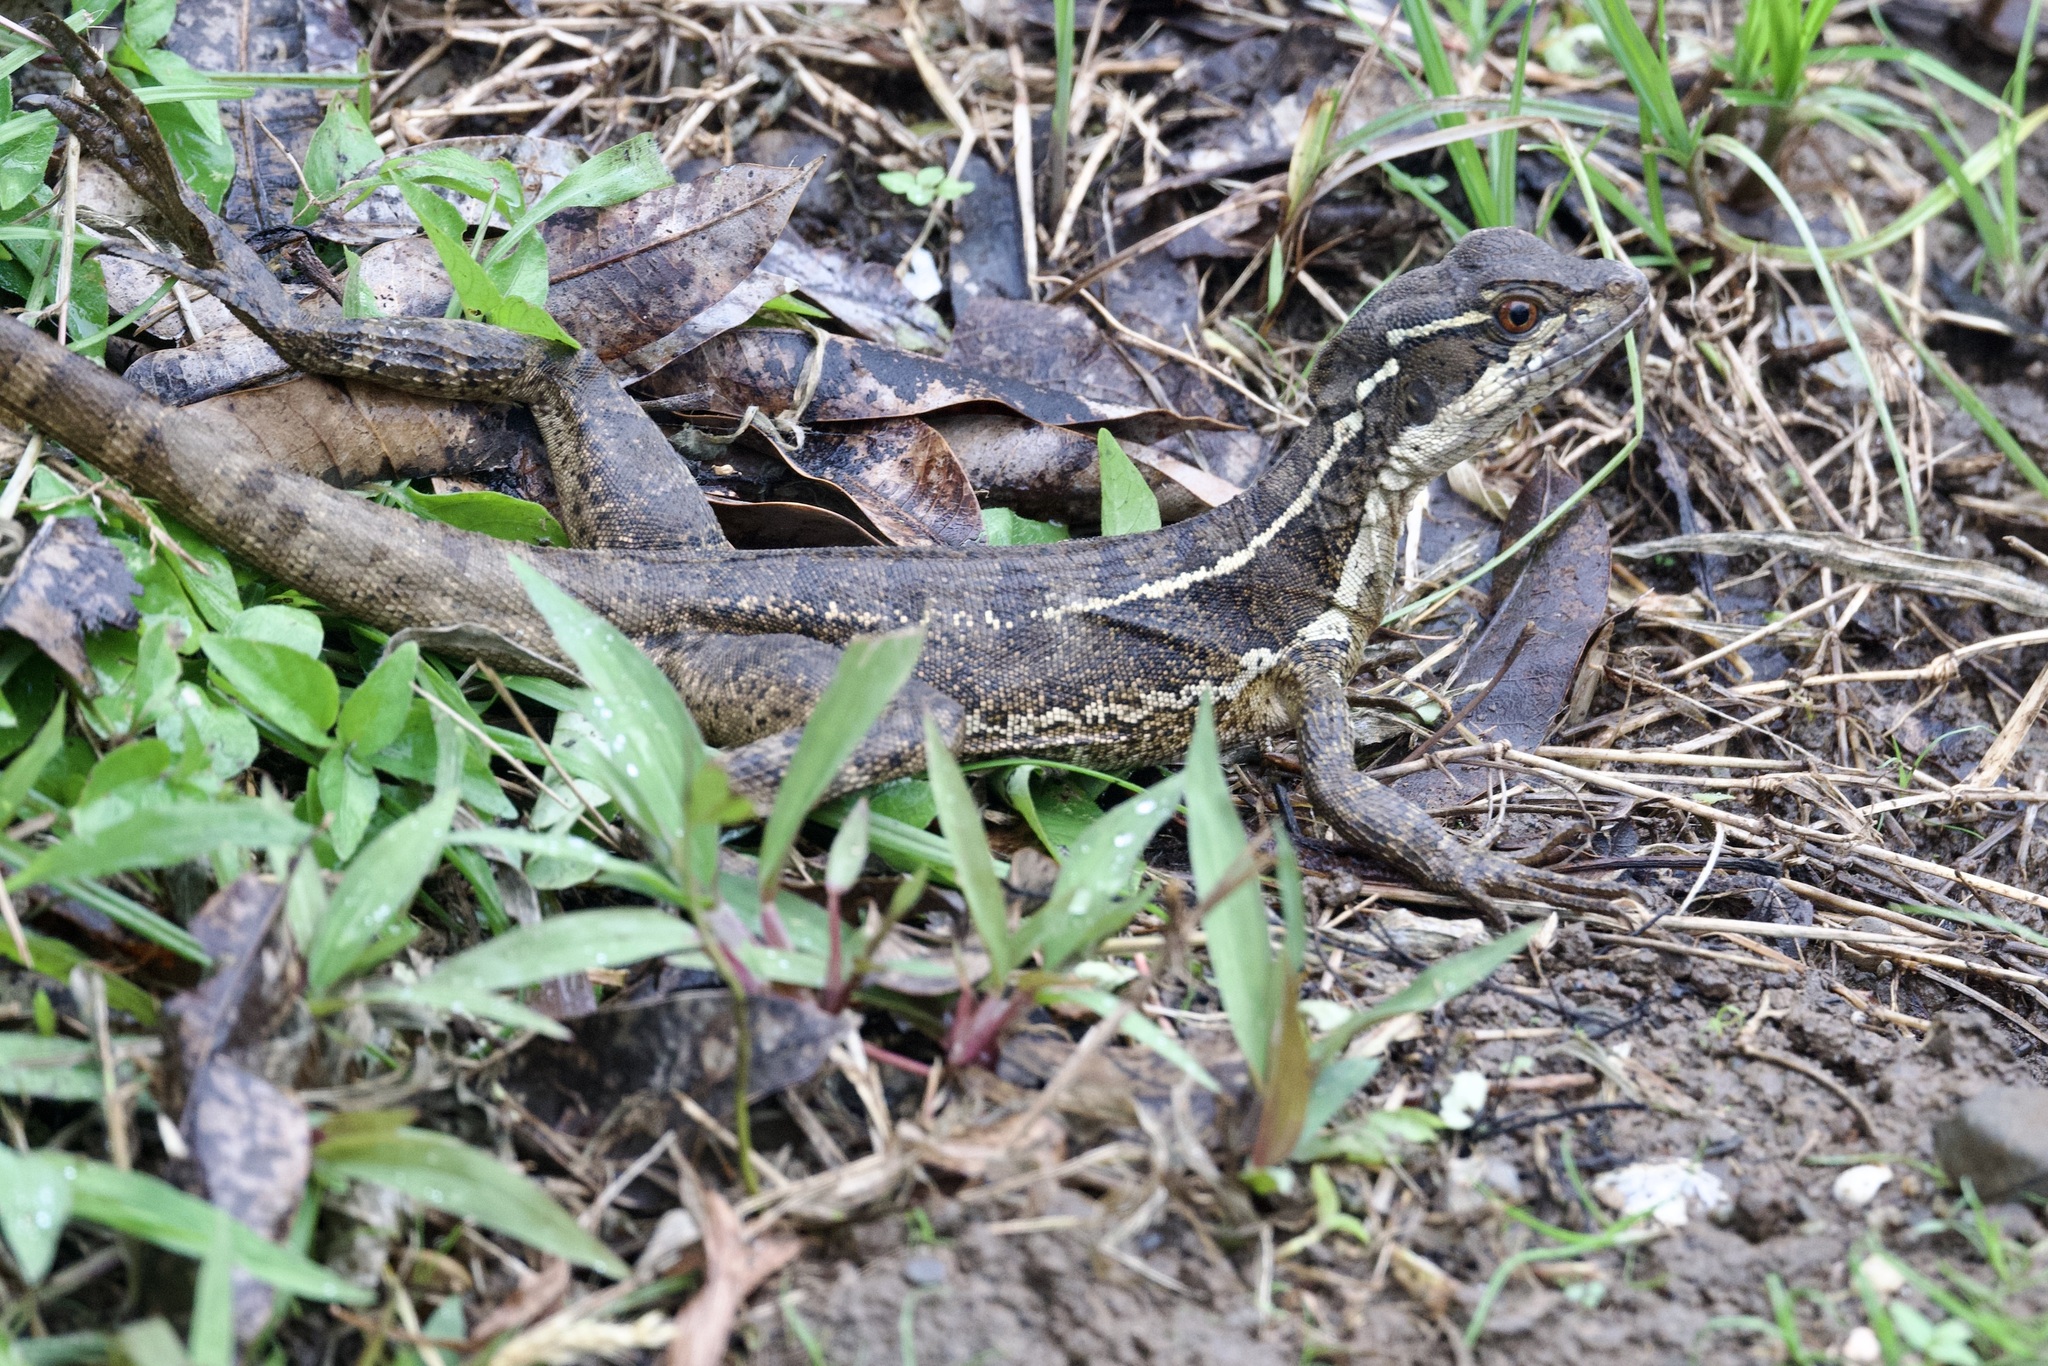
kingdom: Animalia
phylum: Chordata
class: Squamata
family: Corytophanidae
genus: Basiliscus
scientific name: Basiliscus basiliscus
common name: Common basilisk
